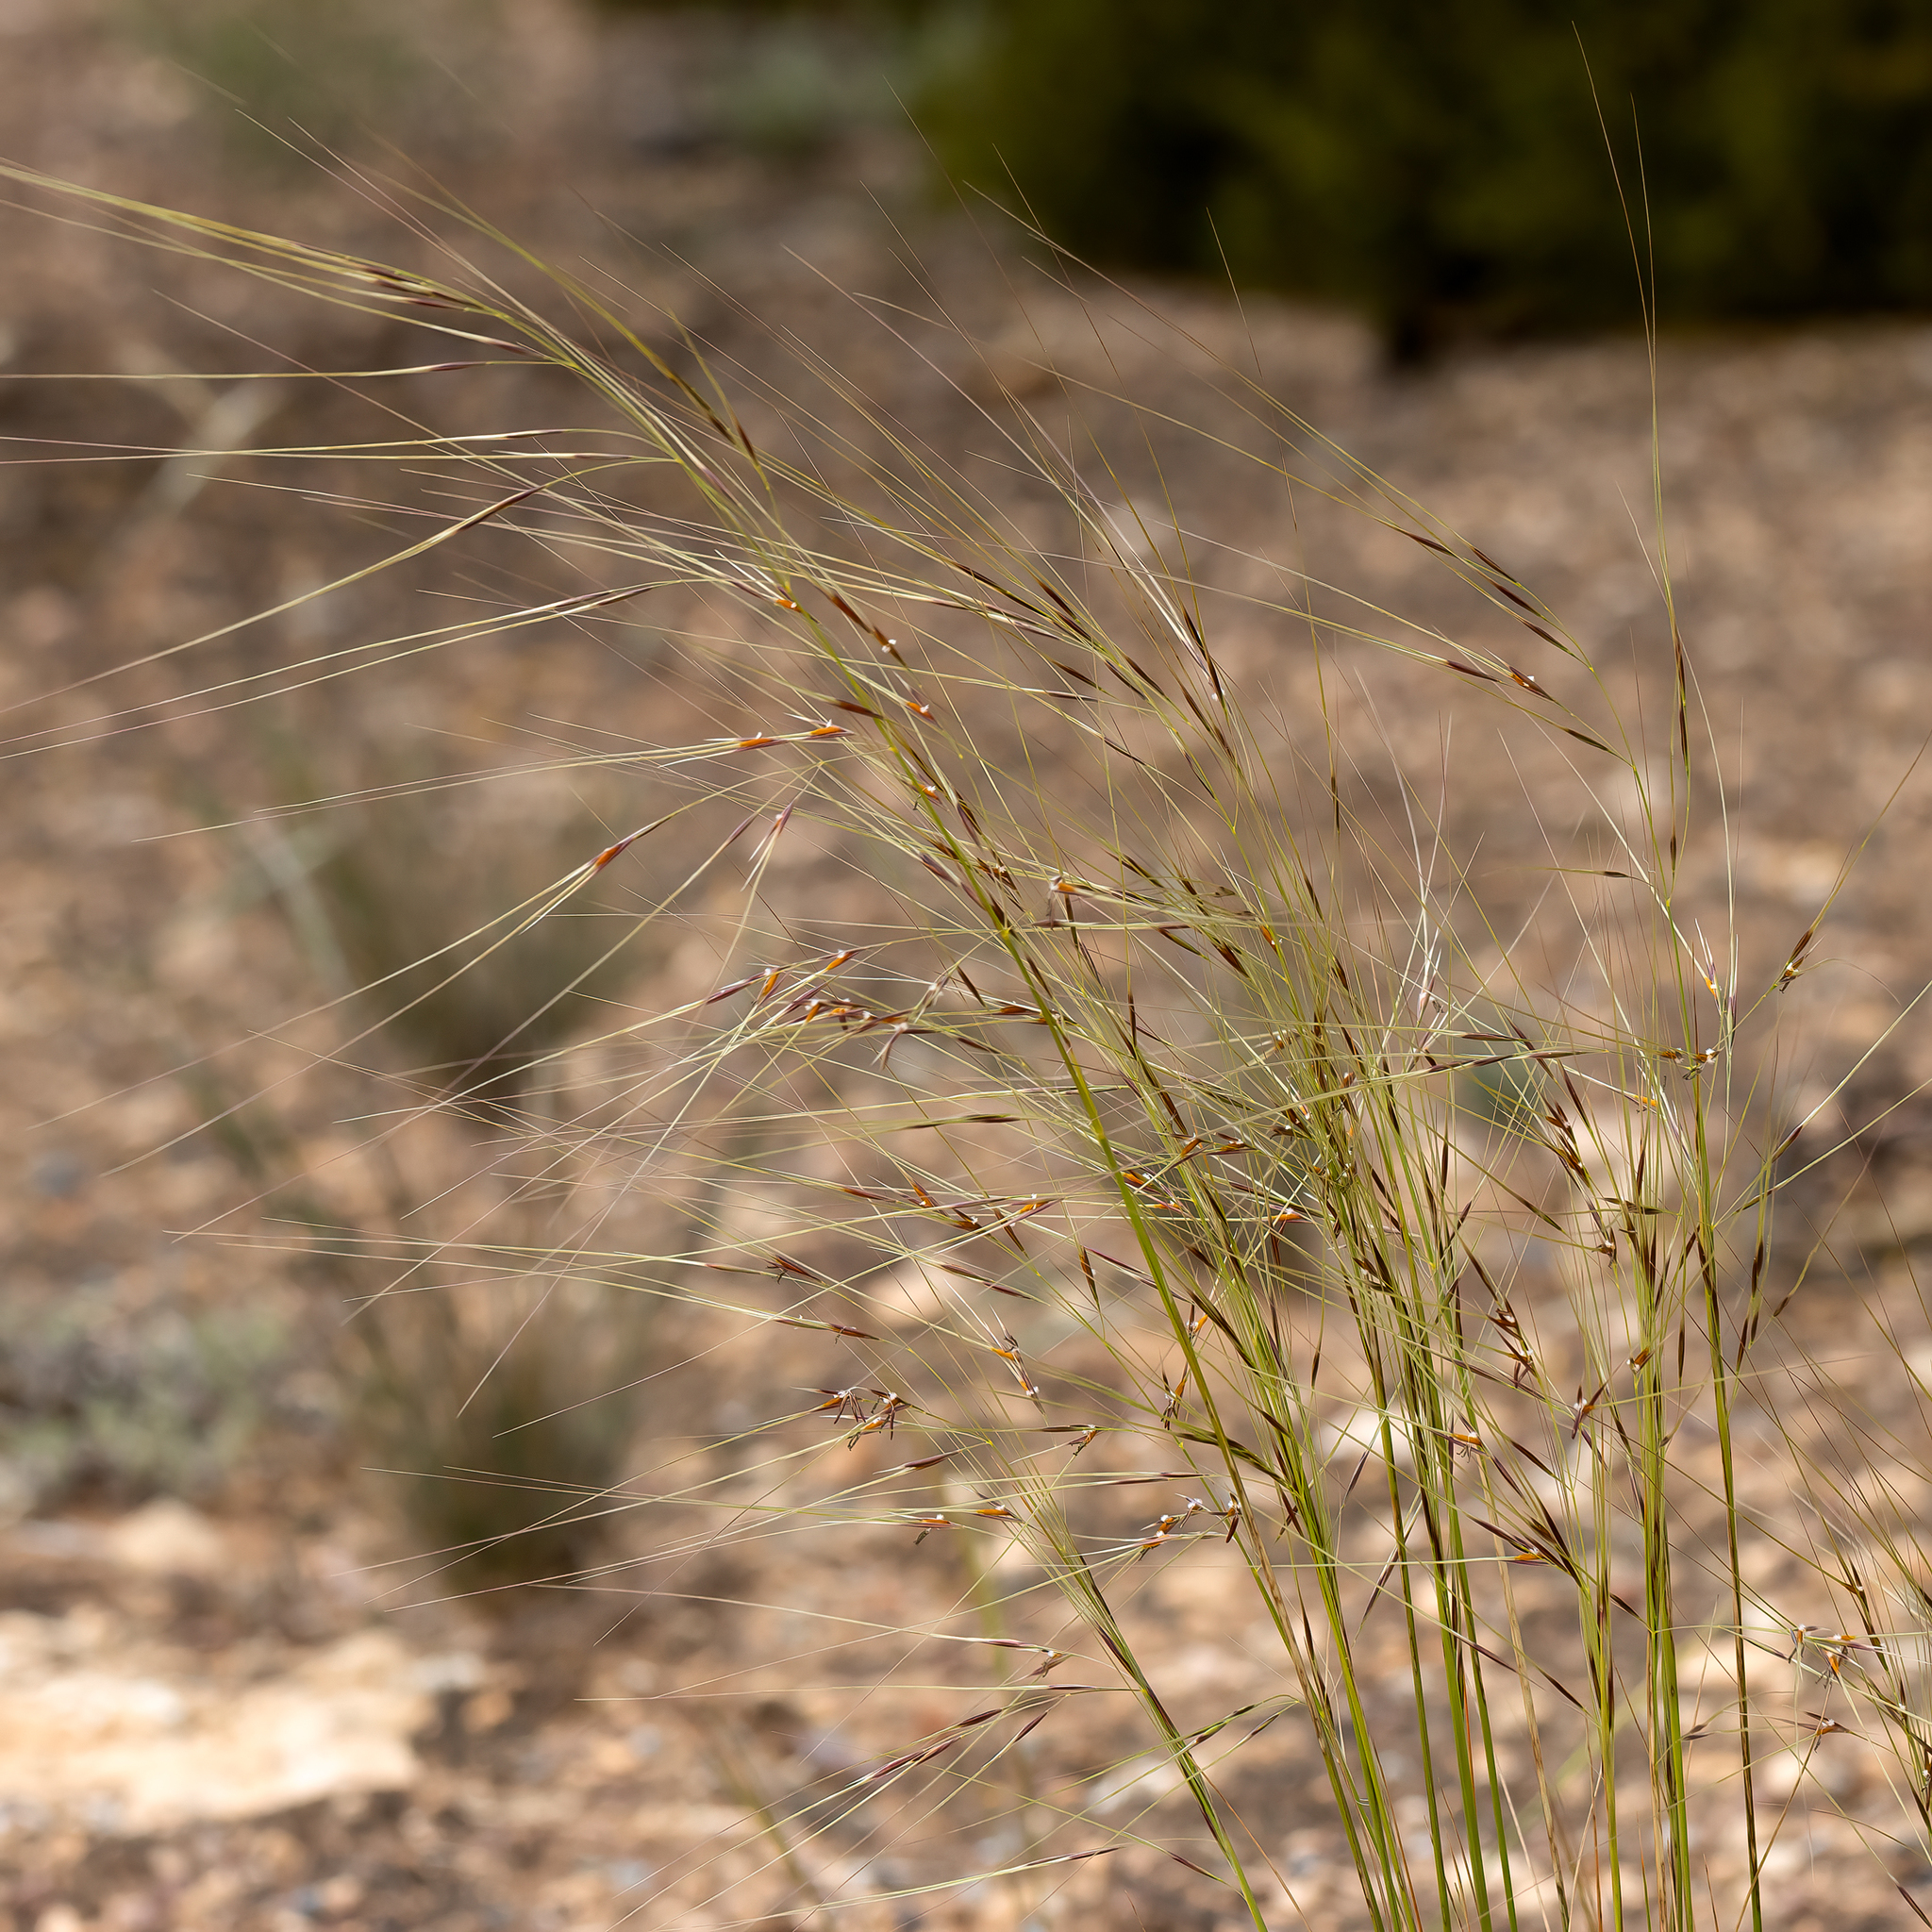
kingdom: Plantae
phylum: Tracheophyta
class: Liliopsida
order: Poales
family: Poaceae
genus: Austrostipa
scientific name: Austrostipa eremophila
